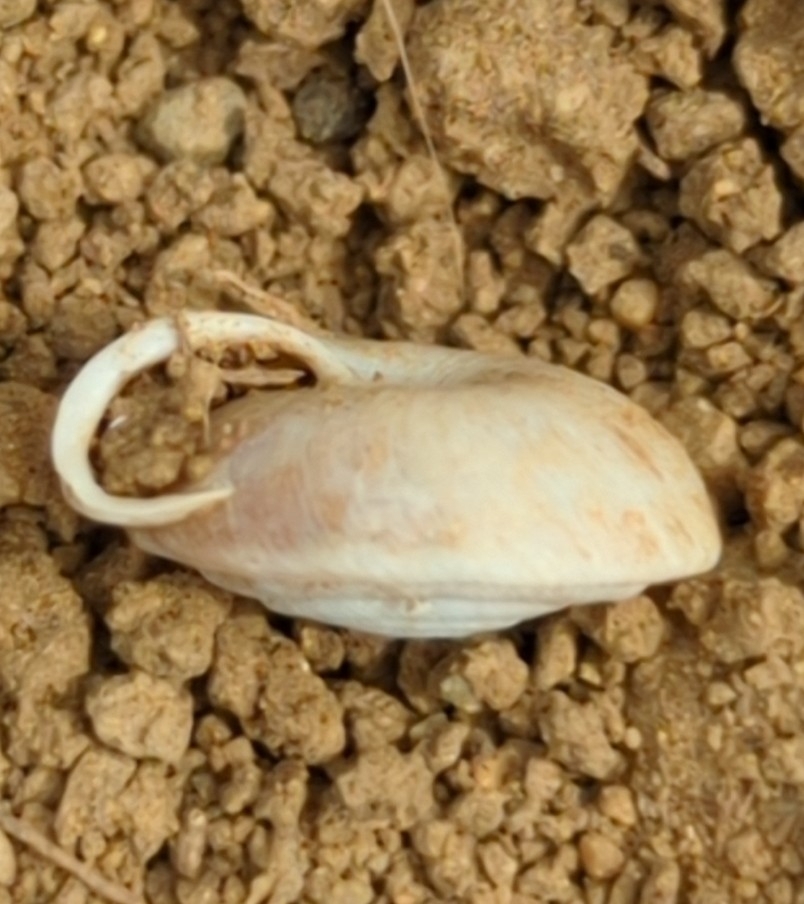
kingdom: Animalia
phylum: Mollusca
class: Gastropoda
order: Stylommatophora
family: Helicodontidae
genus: Lindholmiola
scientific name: Lindholmiola lens
